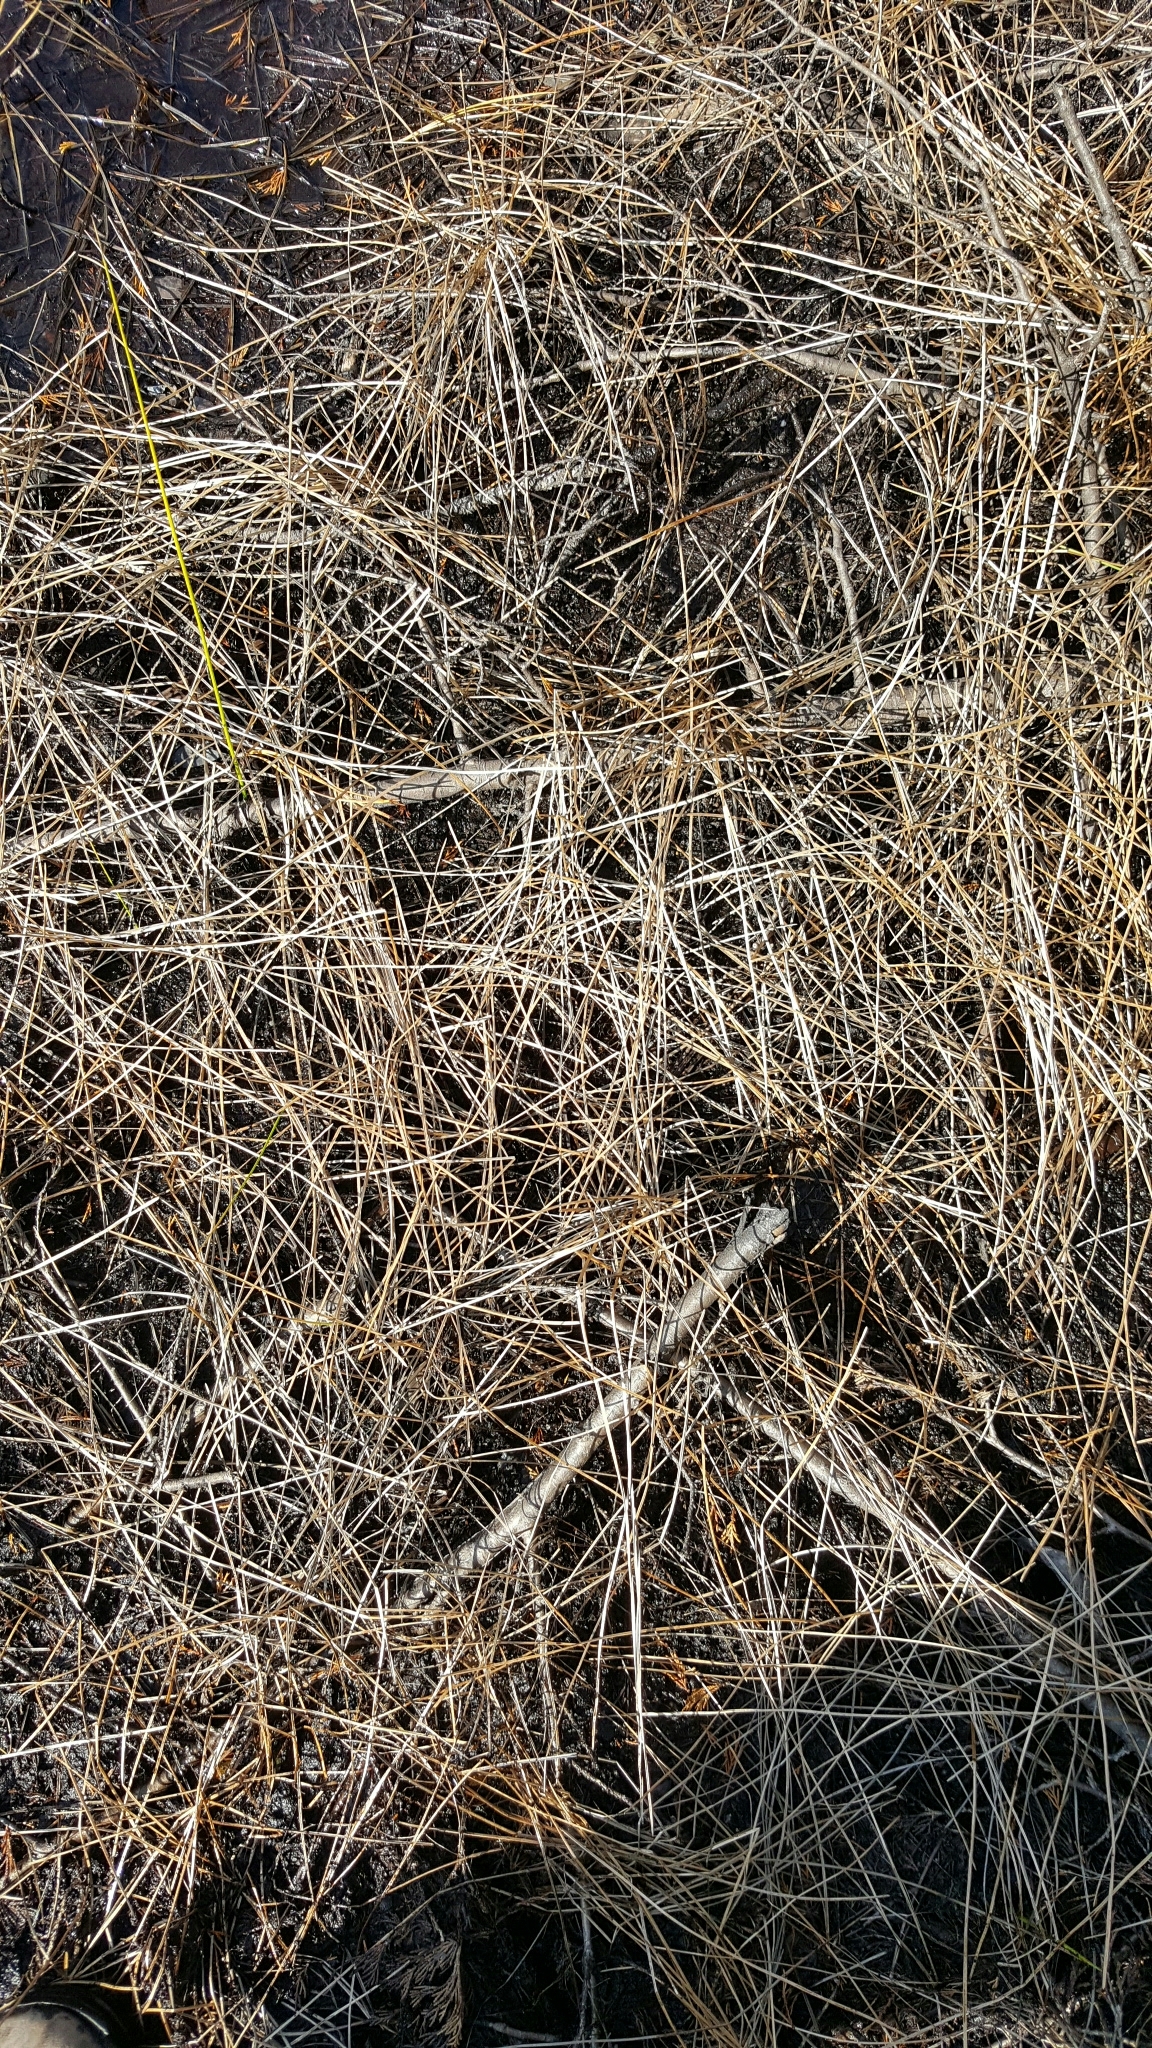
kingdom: Plantae
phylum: Tracheophyta
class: Liliopsida
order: Poales
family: Cyperaceae
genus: Eleocharis
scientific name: Eleocharis robbinsii
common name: Robbins' spikerush
